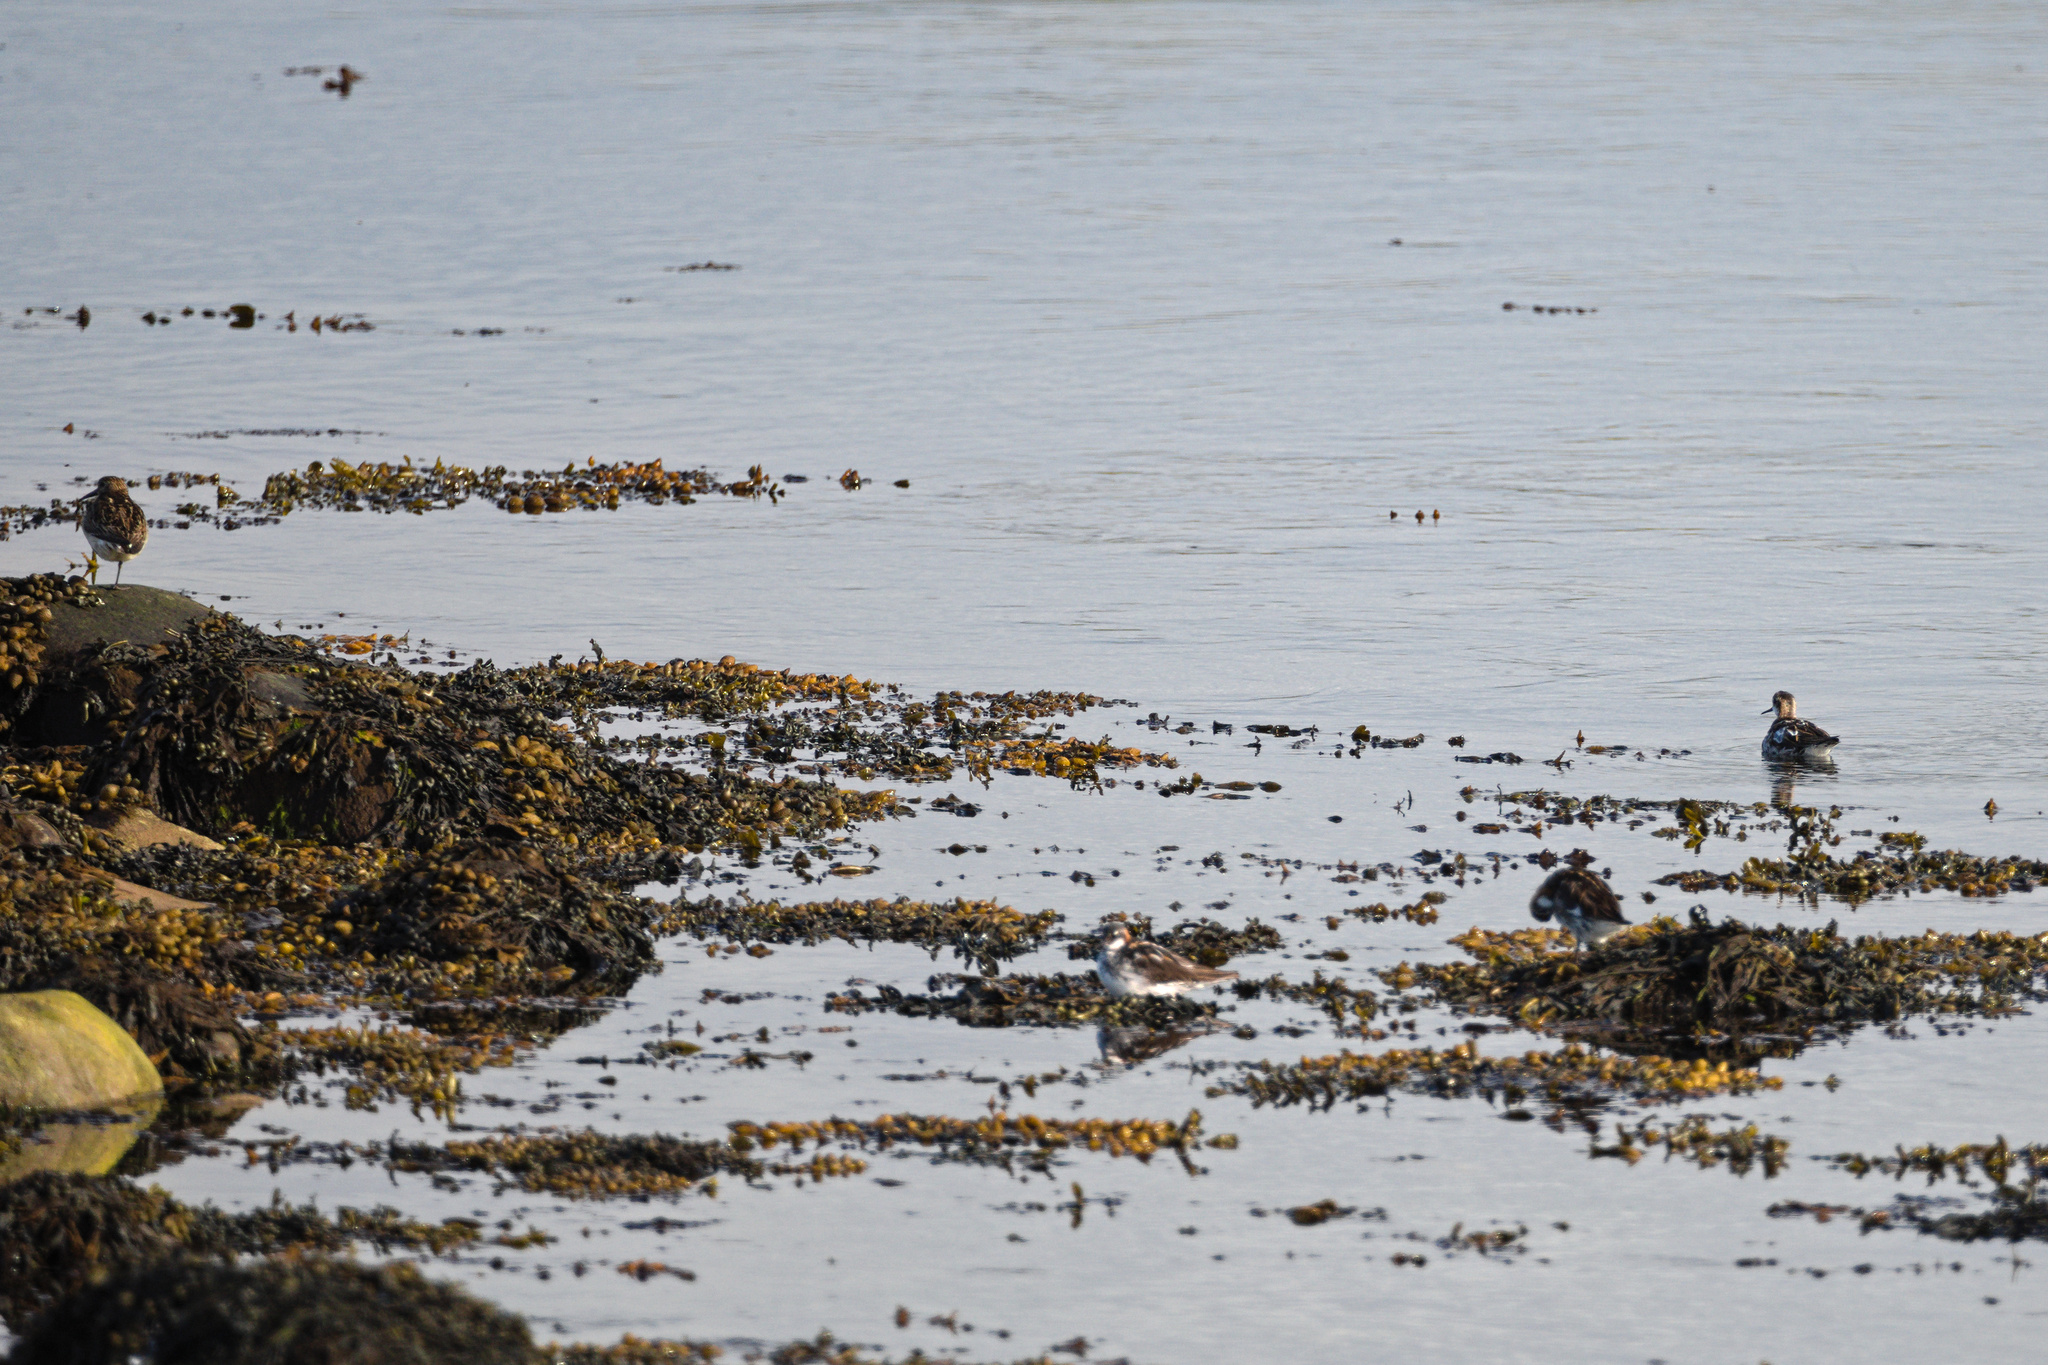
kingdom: Animalia
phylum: Chordata
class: Aves
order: Charadriiformes
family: Scolopacidae
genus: Phalaropus
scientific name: Phalaropus lobatus
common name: Red-necked phalarope
